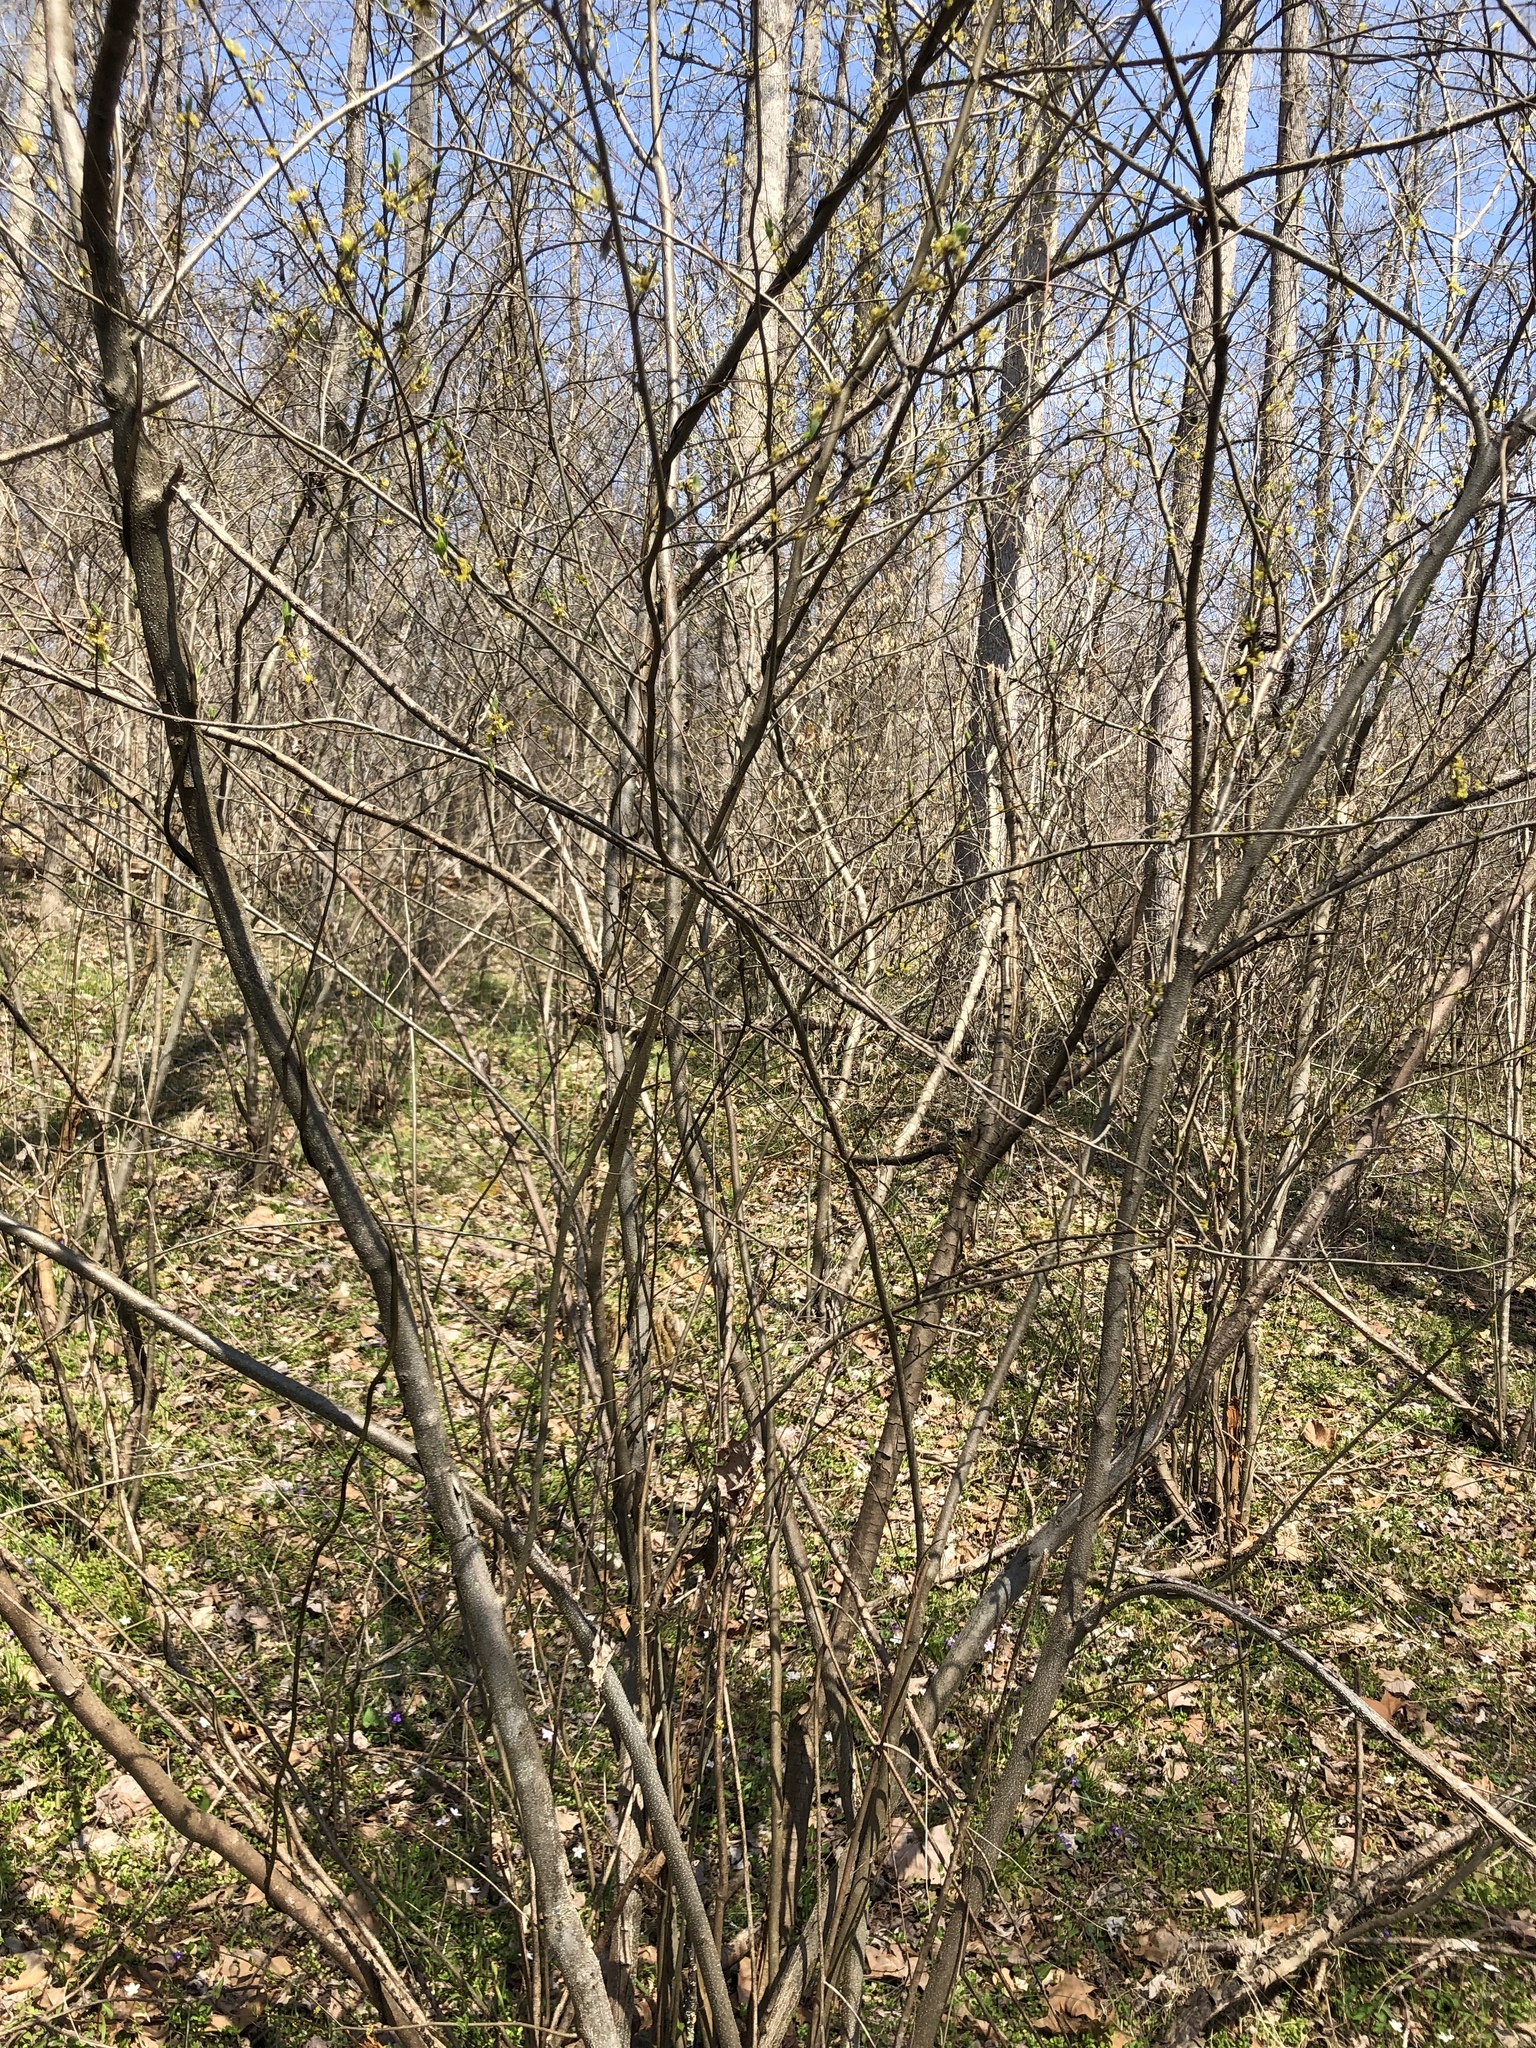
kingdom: Plantae
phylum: Tracheophyta
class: Magnoliopsida
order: Laurales
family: Lauraceae
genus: Lindera
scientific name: Lindera benzoin
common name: Spicebush
